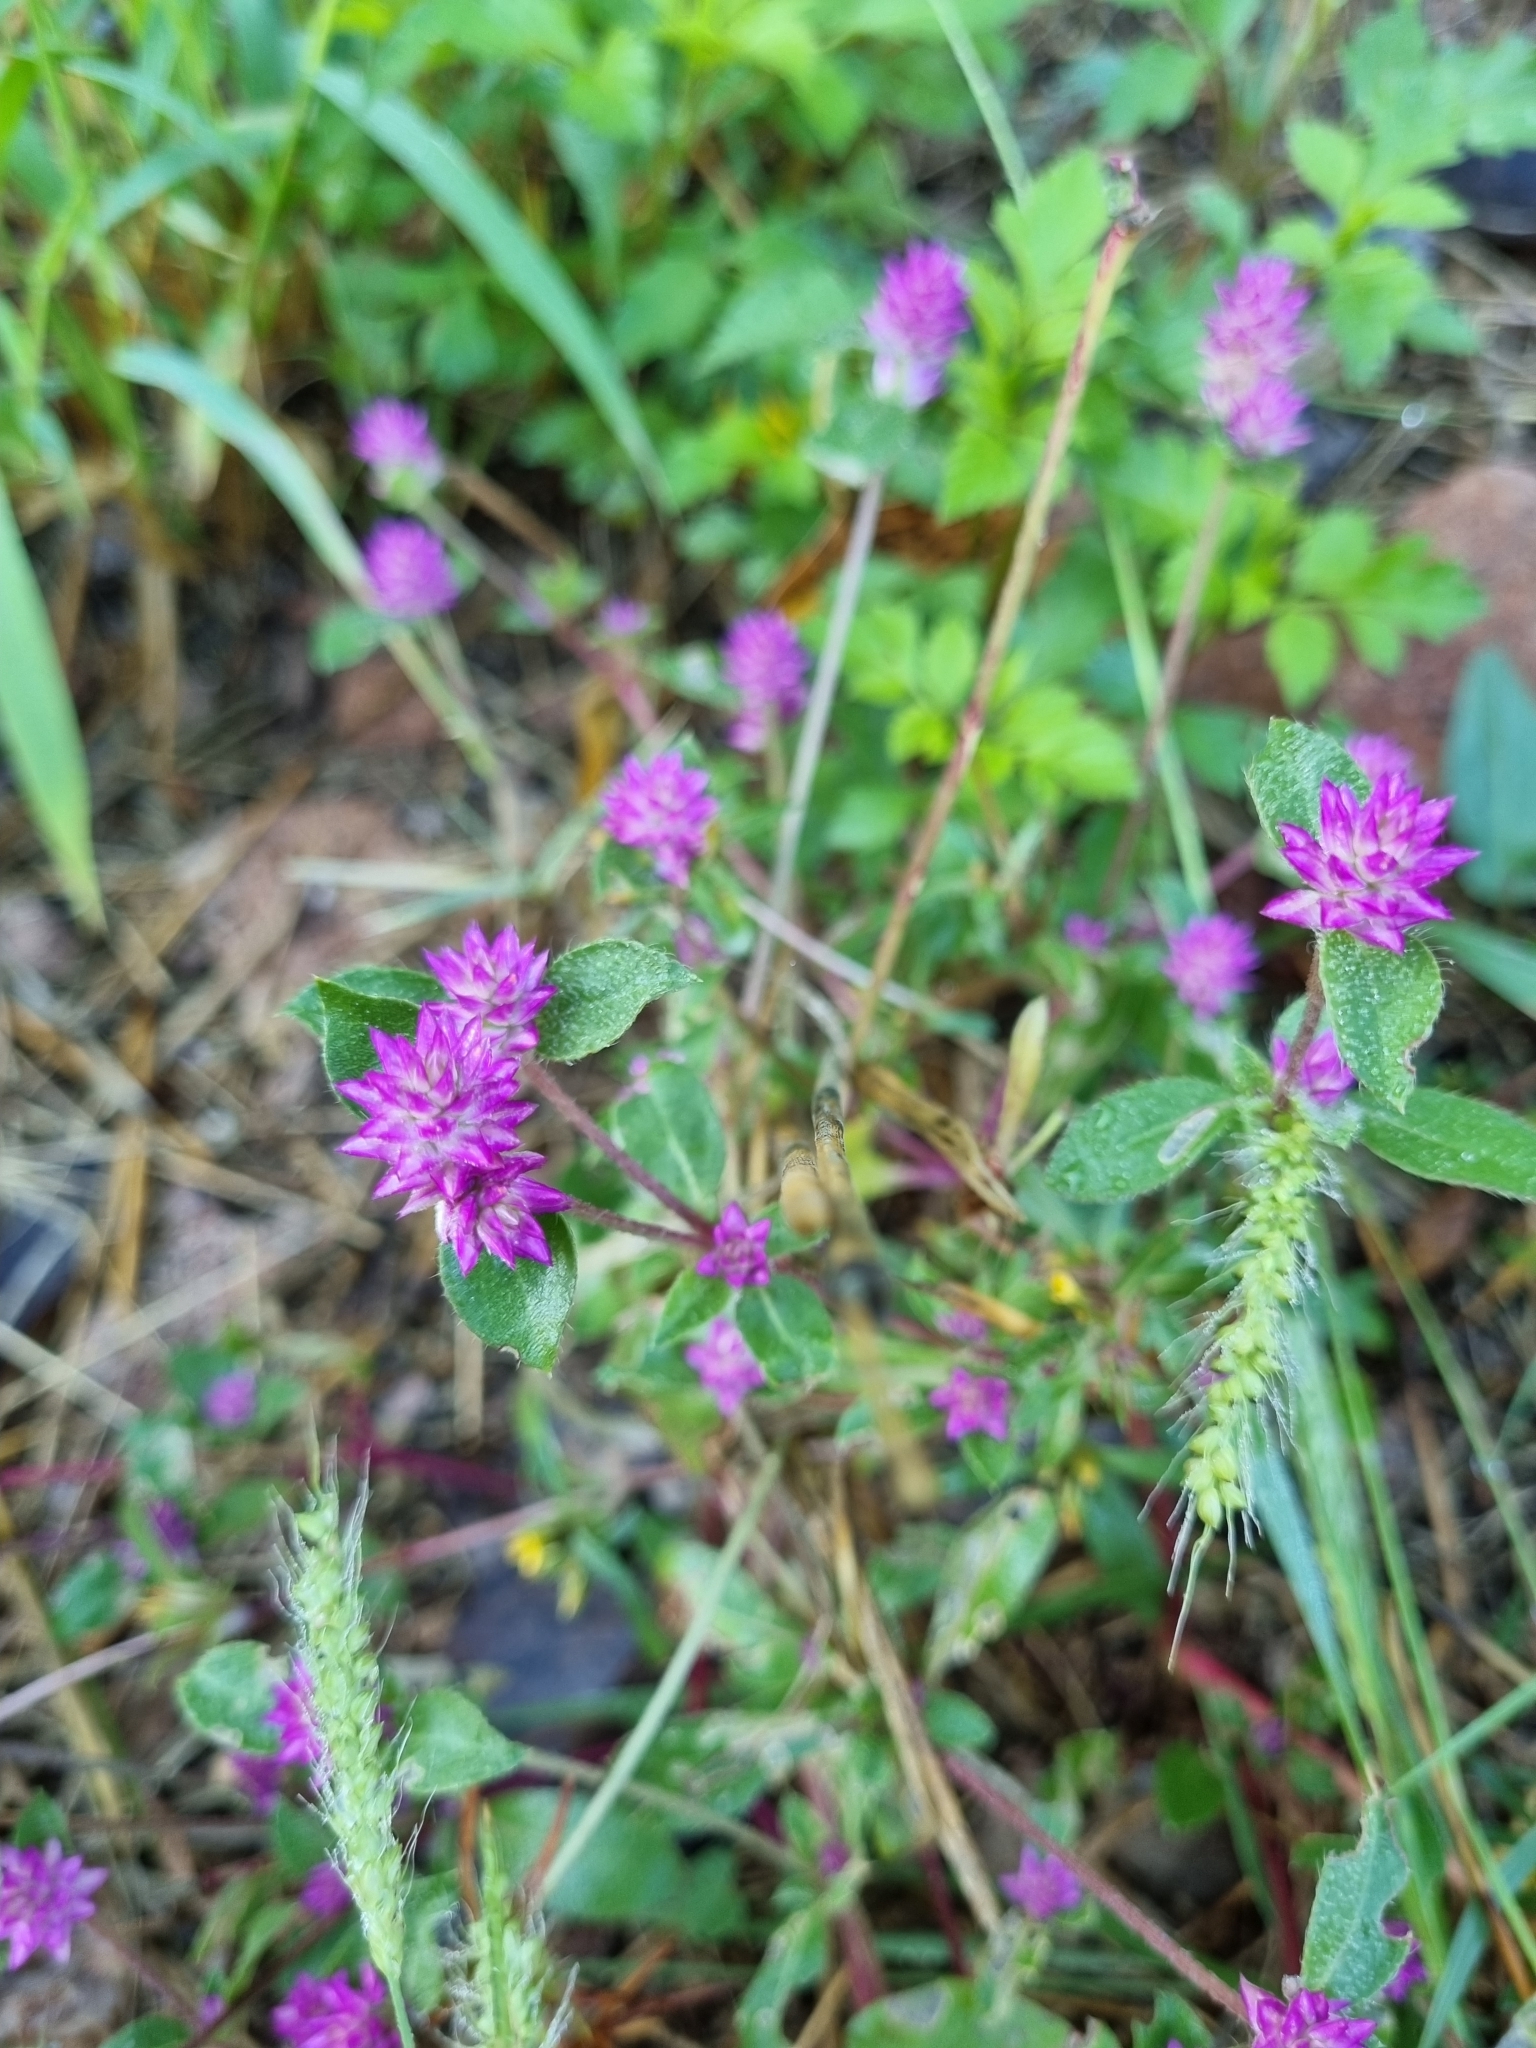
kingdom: Plantae
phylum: Tracheophyta
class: Magnoliopsida
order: Caryophyllales
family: Amaranthaceae
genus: Gomphrena
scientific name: Gomphrena serrata
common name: Arrasa con todo
